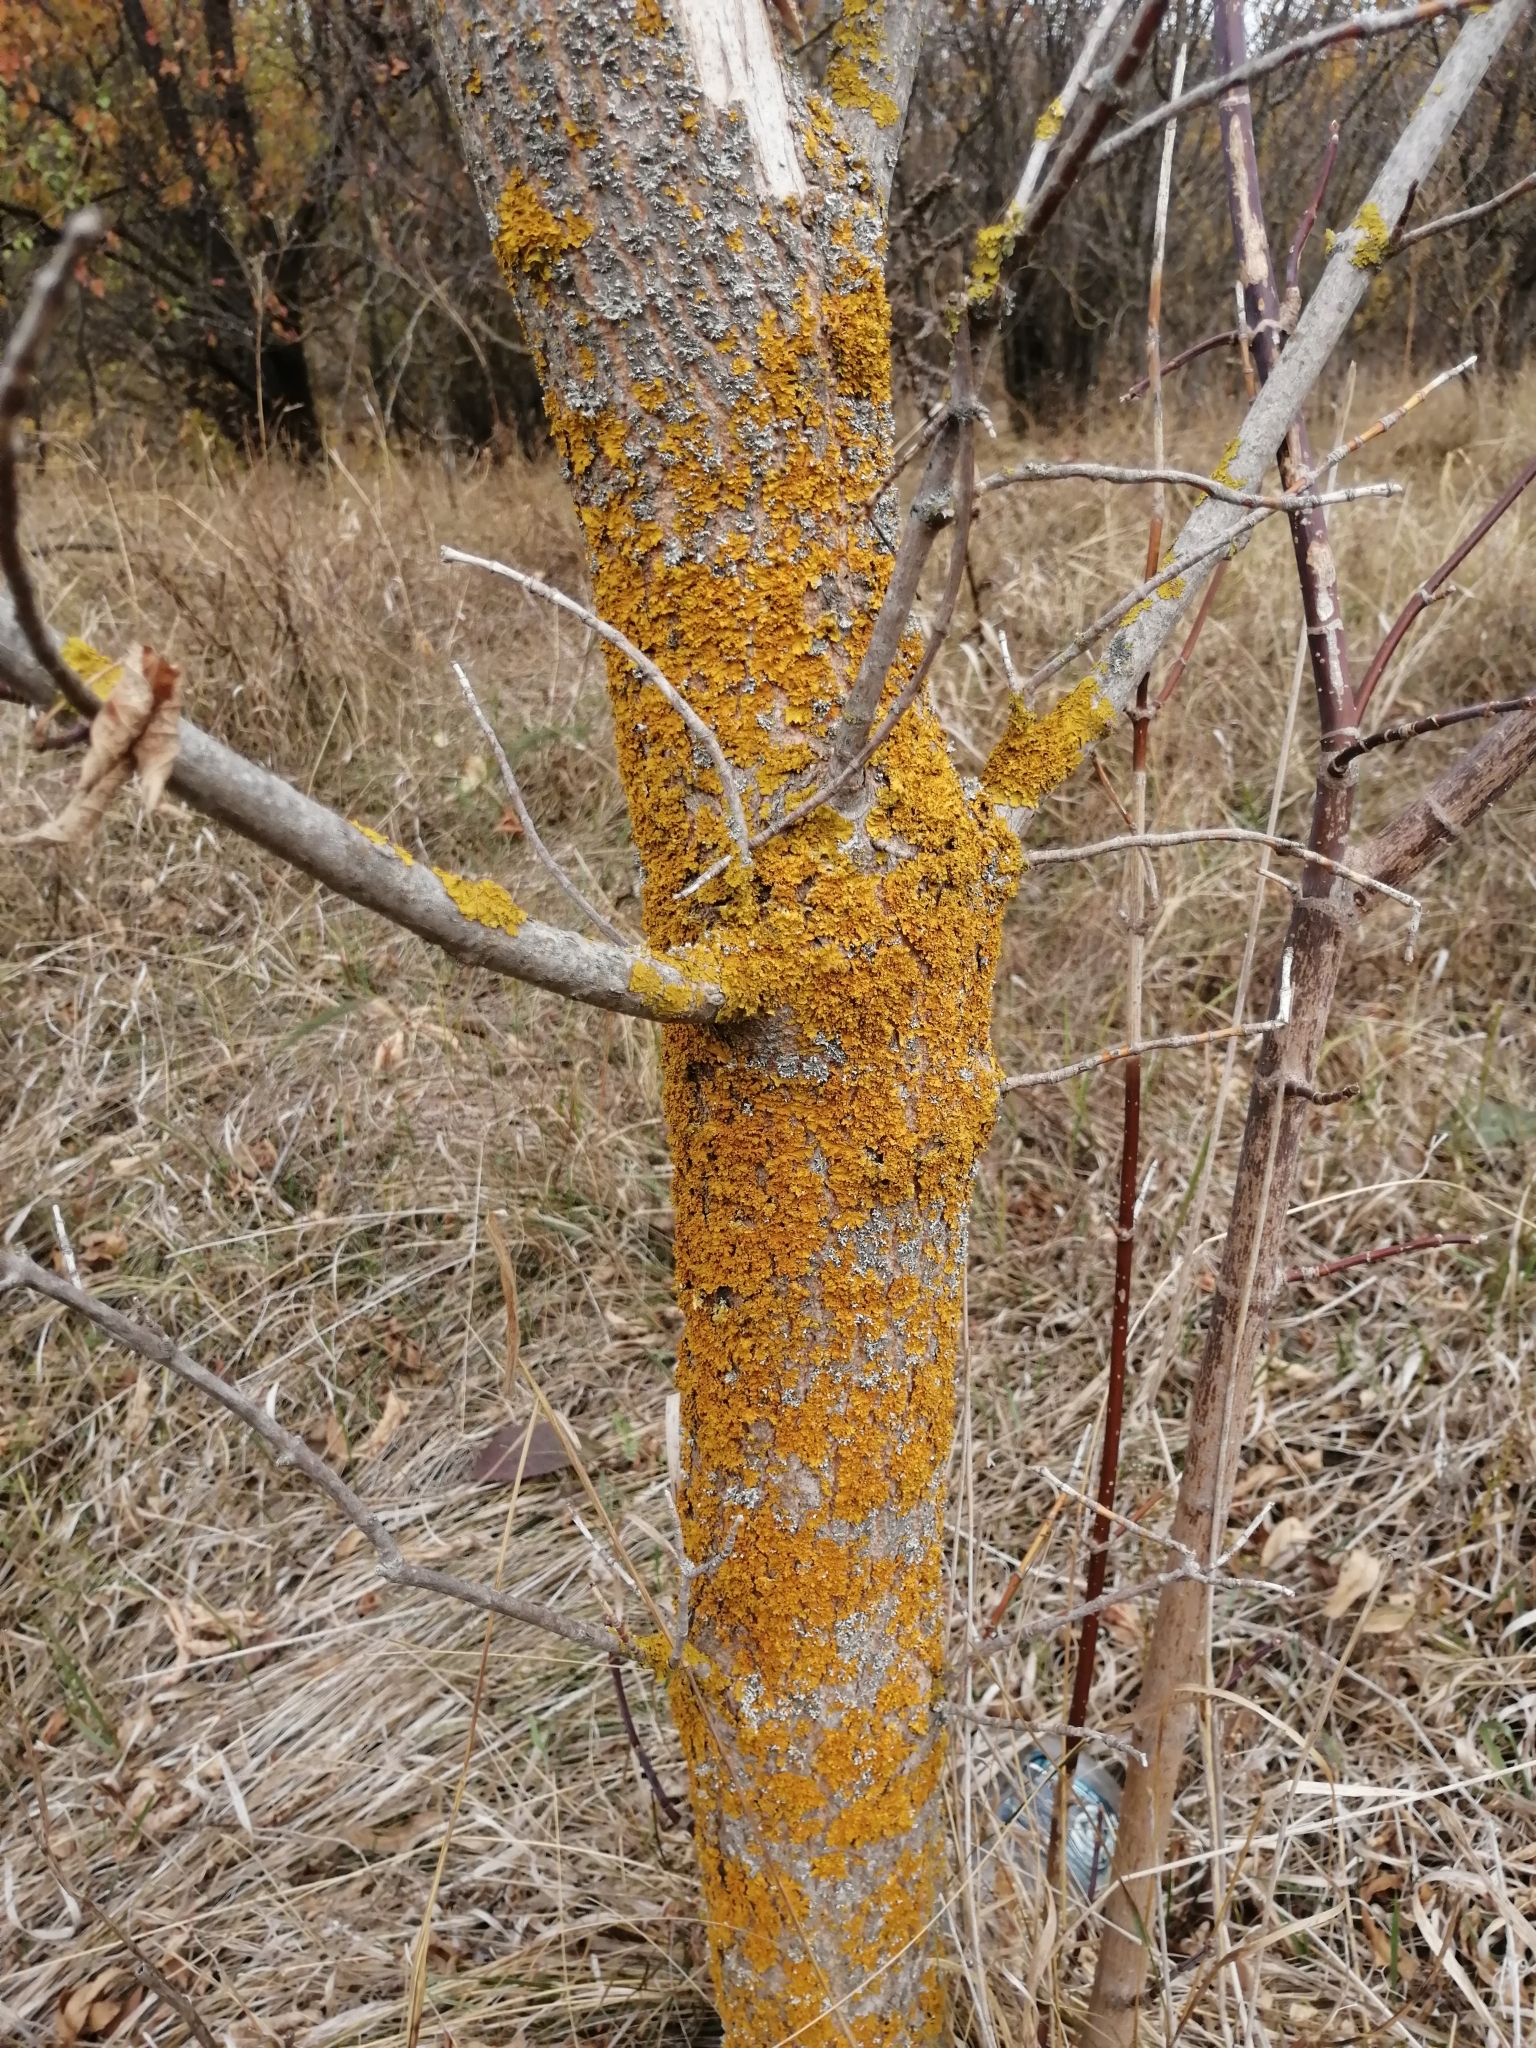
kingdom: Fungi
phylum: Ascomycota
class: Lecanoromycetes
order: Teloschistales
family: Teloschistaceae
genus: Xanthoria
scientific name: Xanthoria parietina
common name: Common orange lichen
